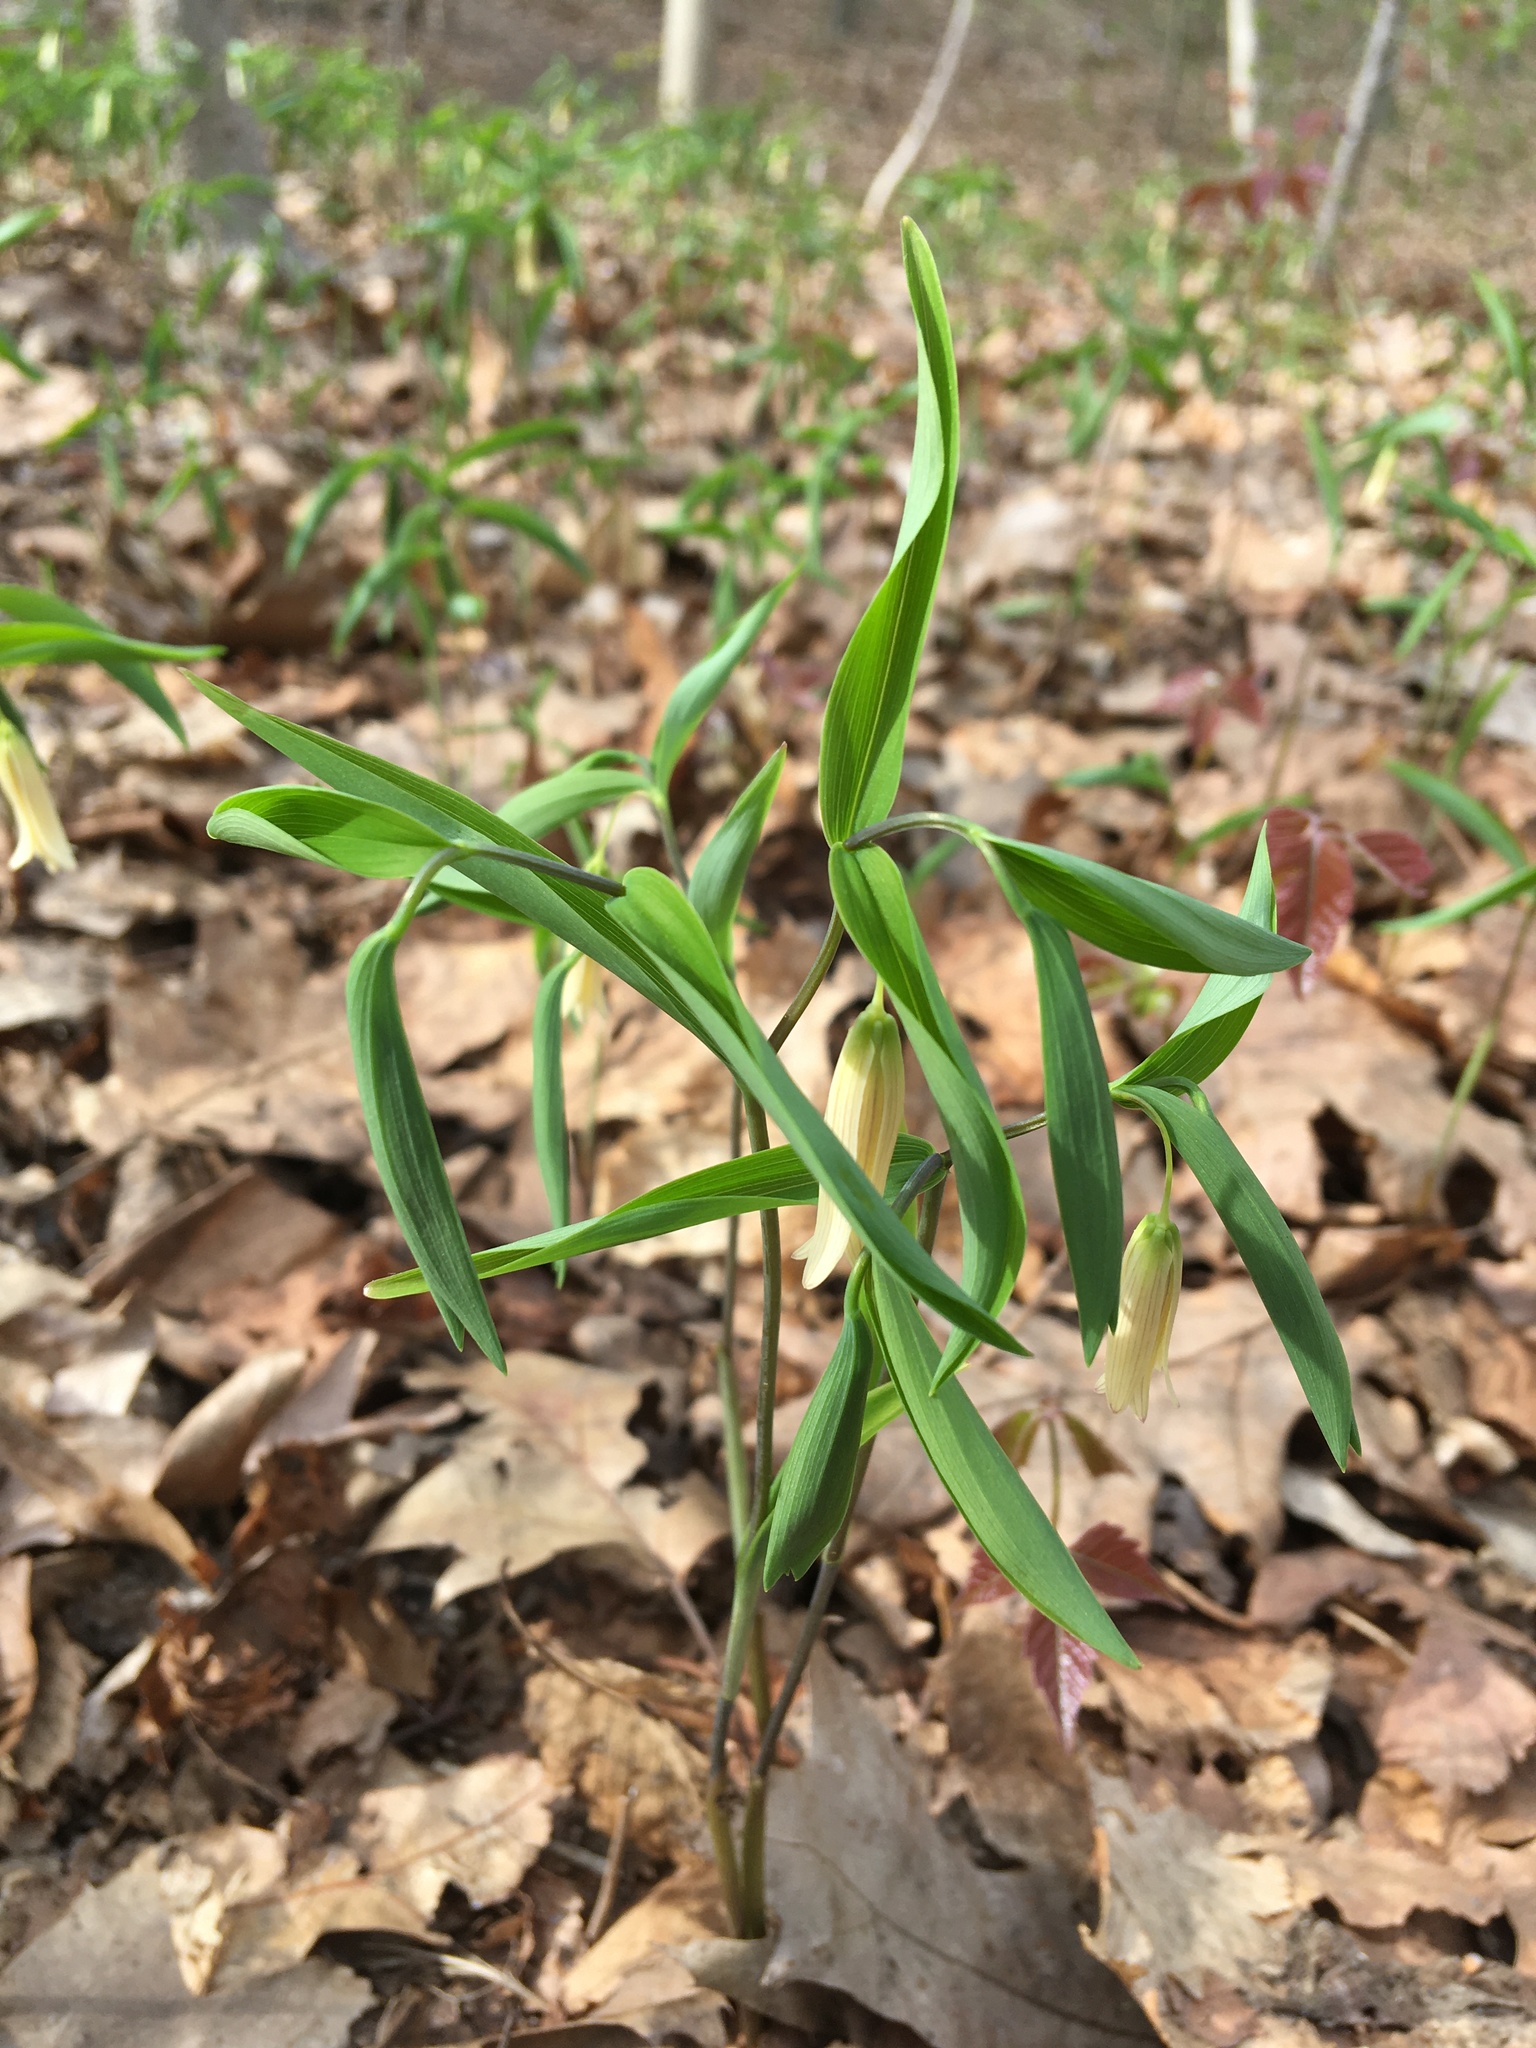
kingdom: Plantae
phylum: Tracheophyta
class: Liliopsida
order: Liliales
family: Colchicaceae
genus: Uvularia
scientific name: Uvularia sessilifolia
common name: Straw-lily
